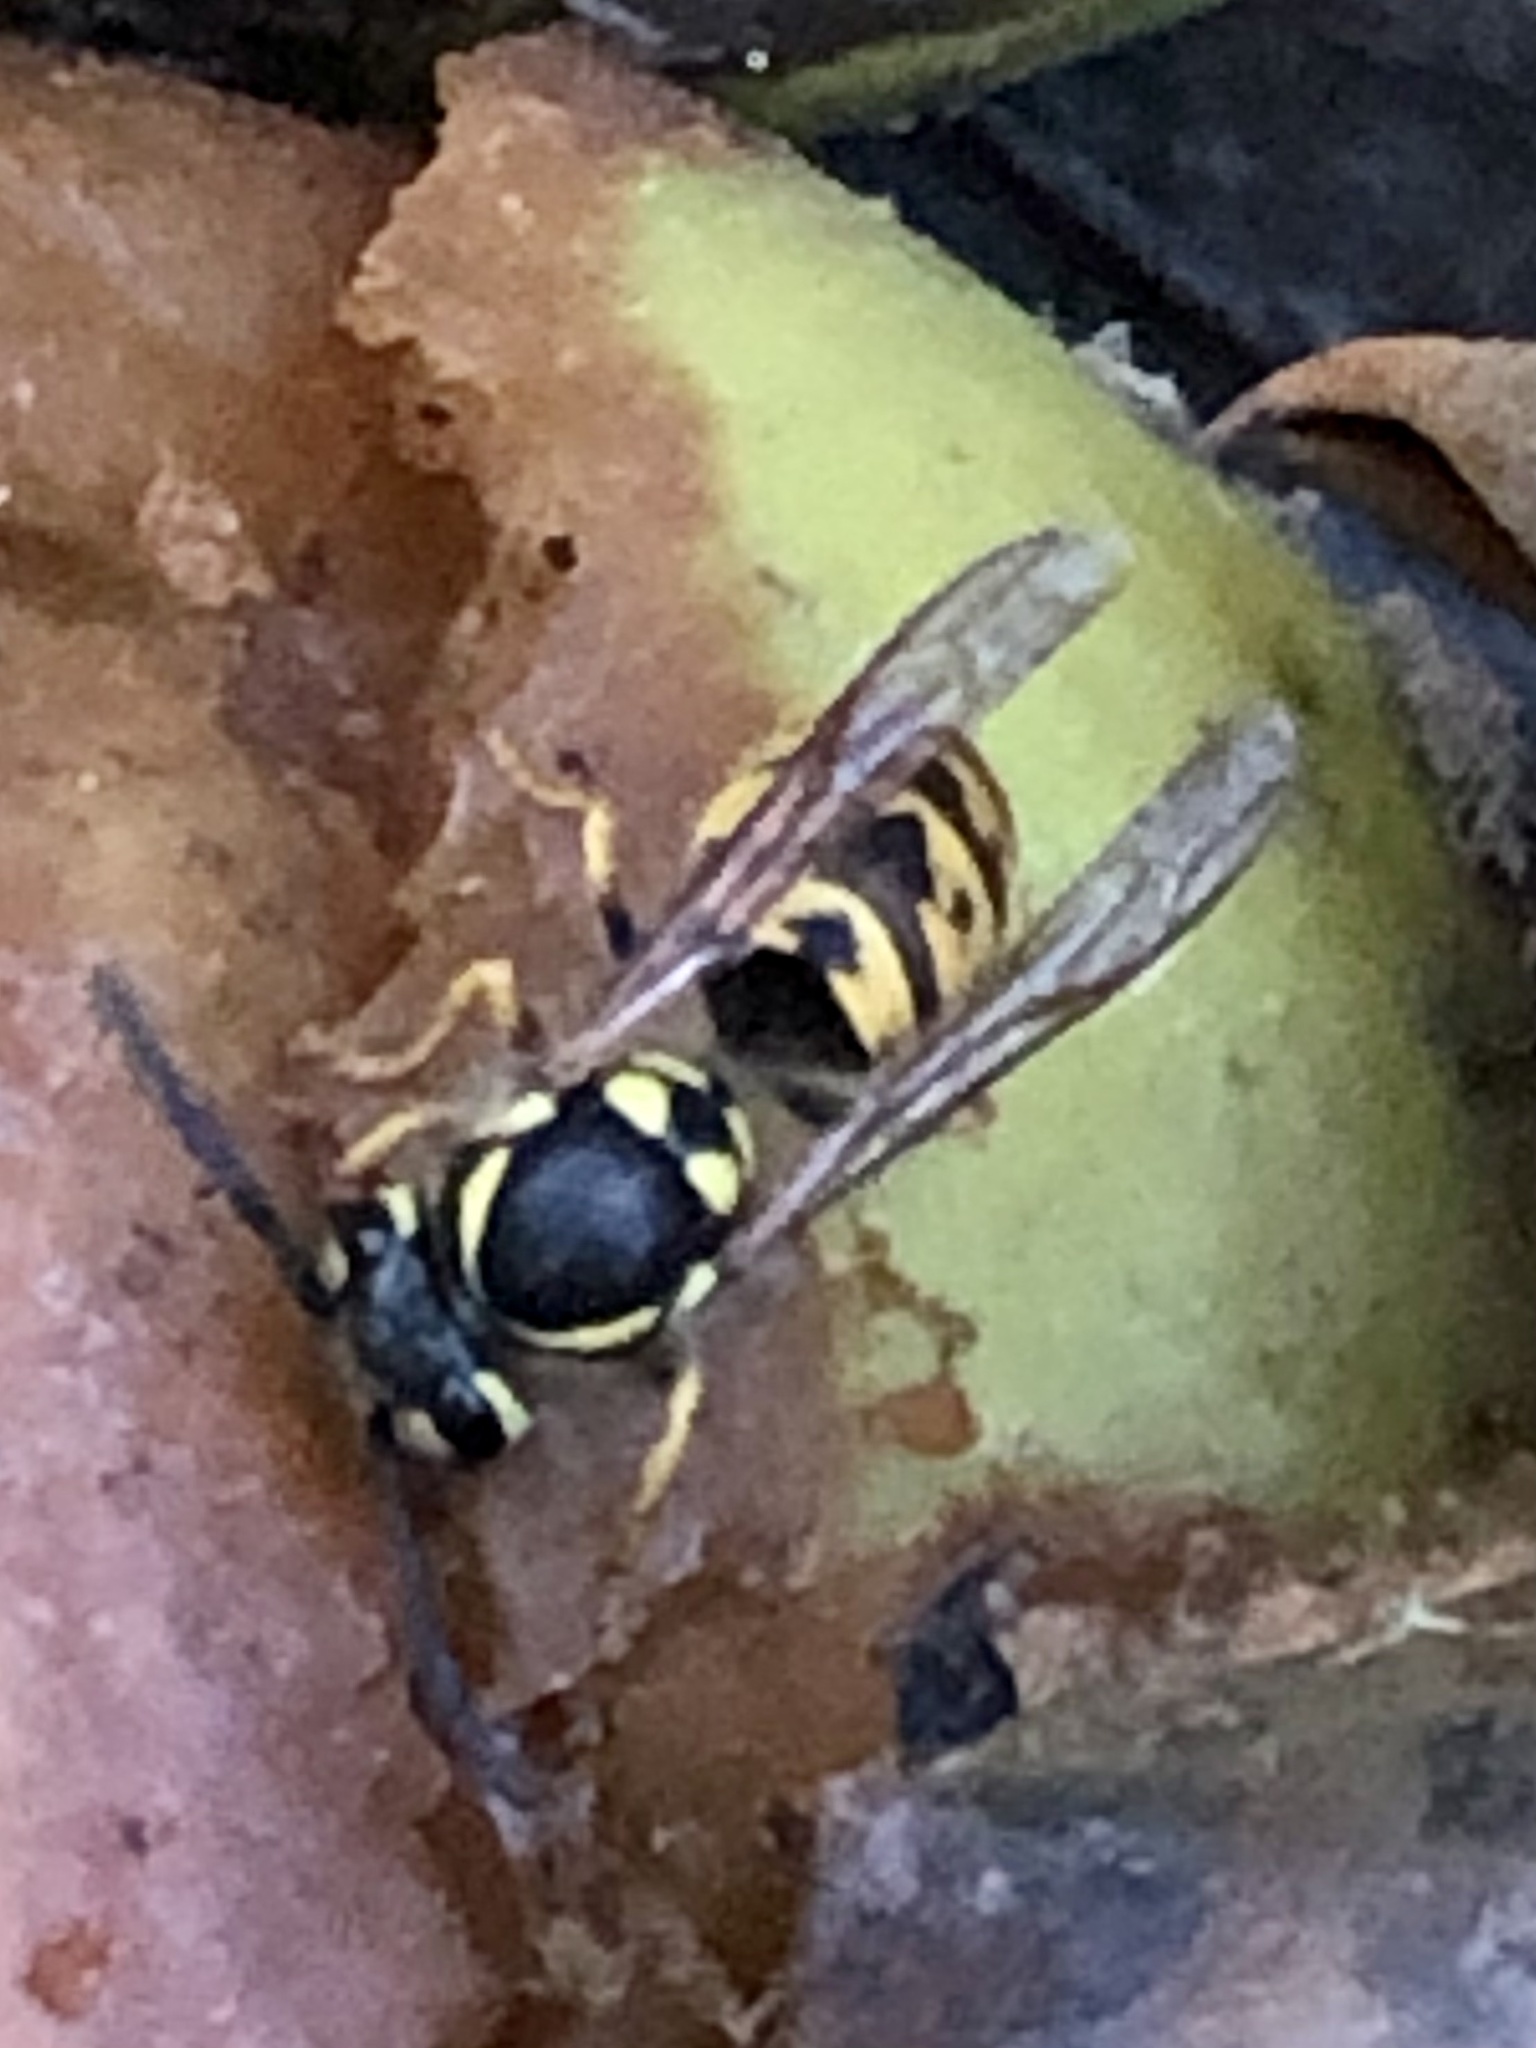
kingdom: Animalia
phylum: Arthropoda
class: Insecta
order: Hymenoptera
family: Vespidae
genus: Vespula
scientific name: Vespula germanica
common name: German wasp
